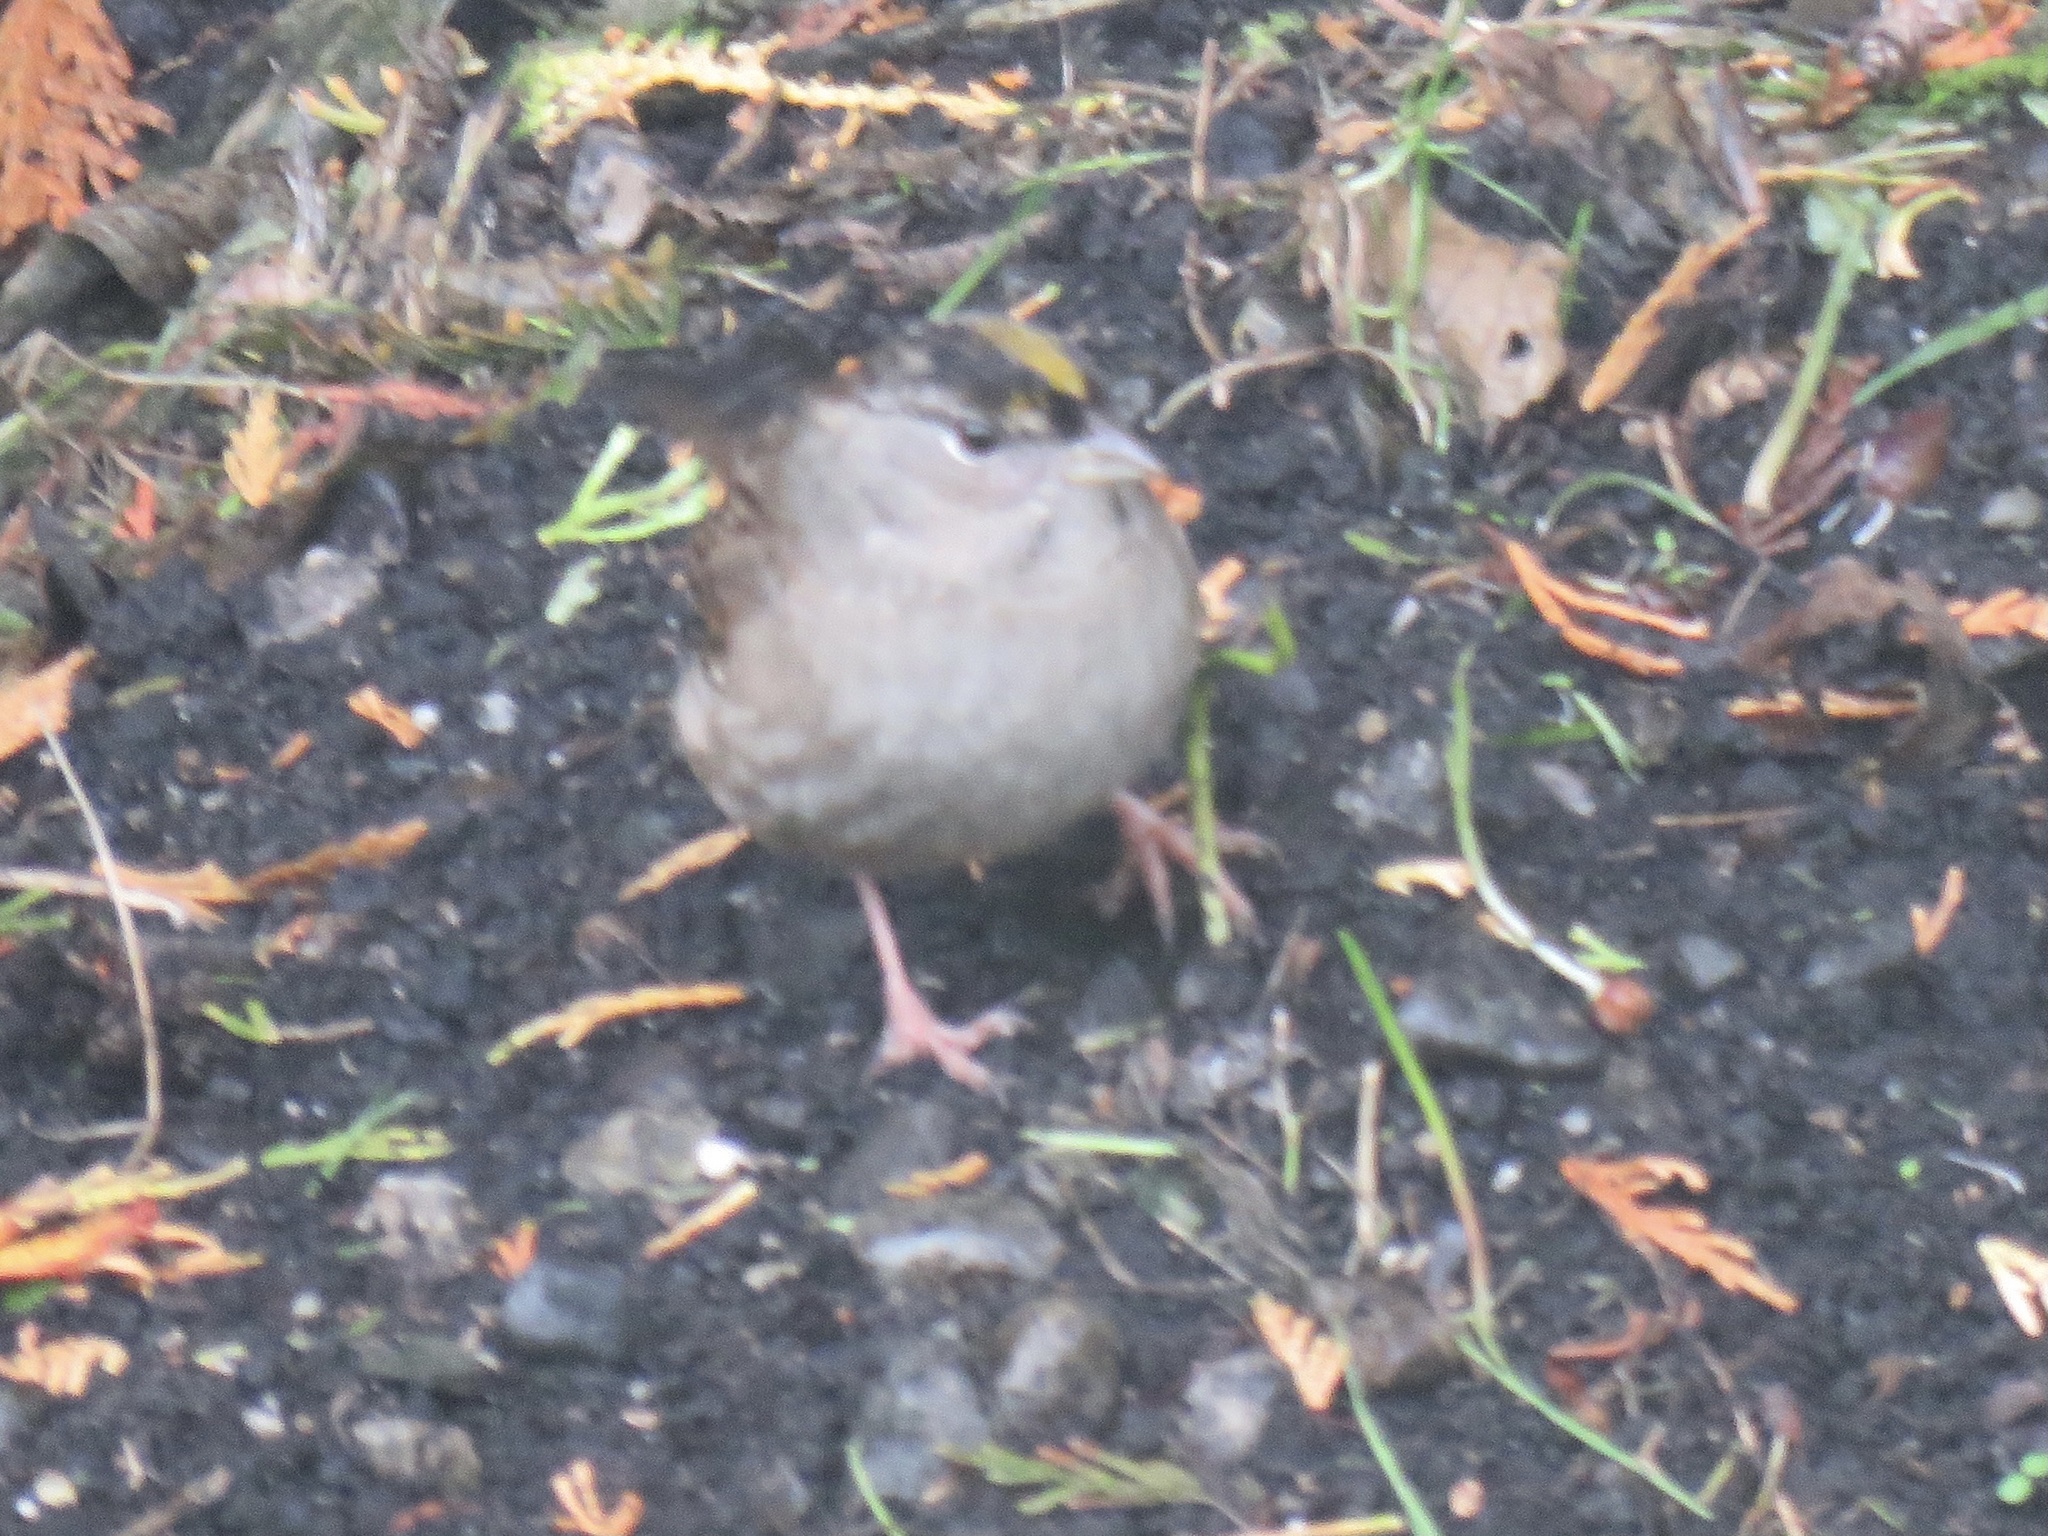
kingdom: Animalia
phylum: Chordata
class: Aves
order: Passeriformes
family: Passerellidae
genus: Zonotrichia
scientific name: Zonotrichia atricapilla
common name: Golden-crowned sparrow
